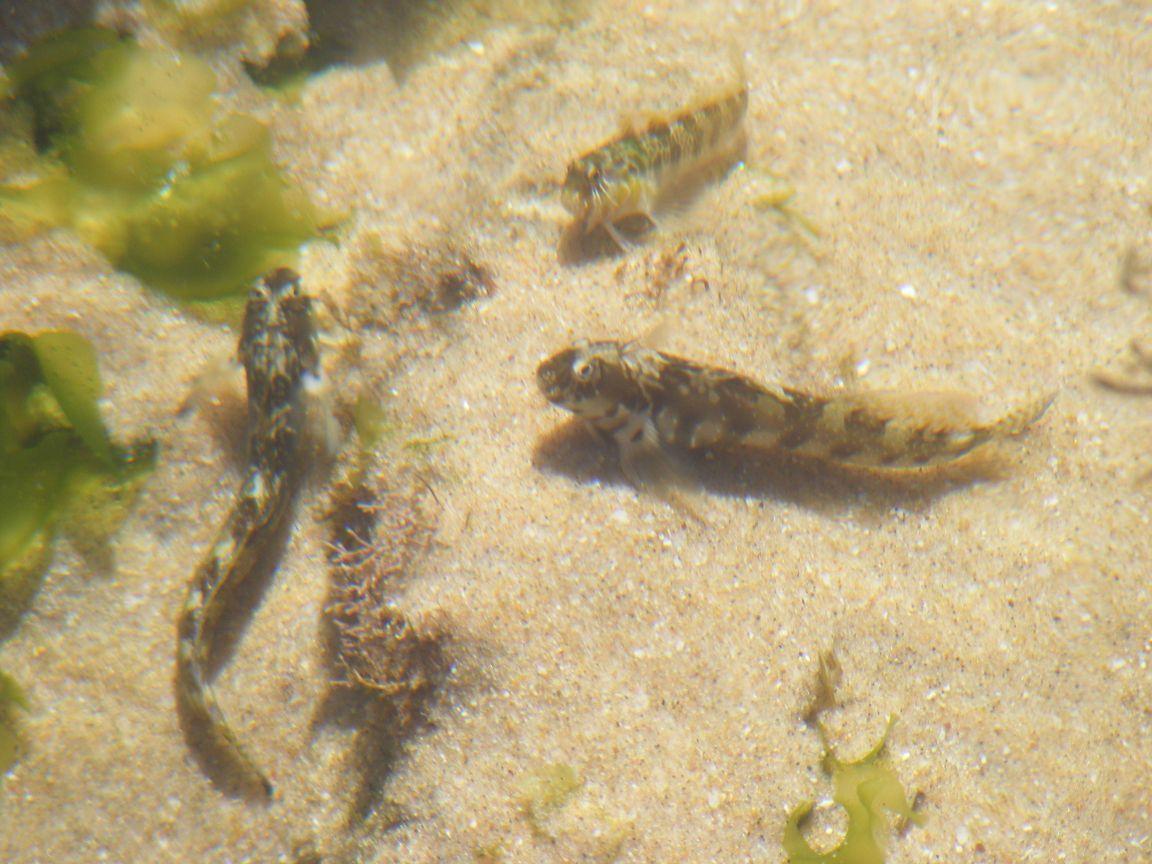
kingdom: Animalia
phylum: Chordata
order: Perciformes
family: Blenniidae
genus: Antennablennius
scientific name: Antennablennius bifilum
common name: Horned rockskipper
